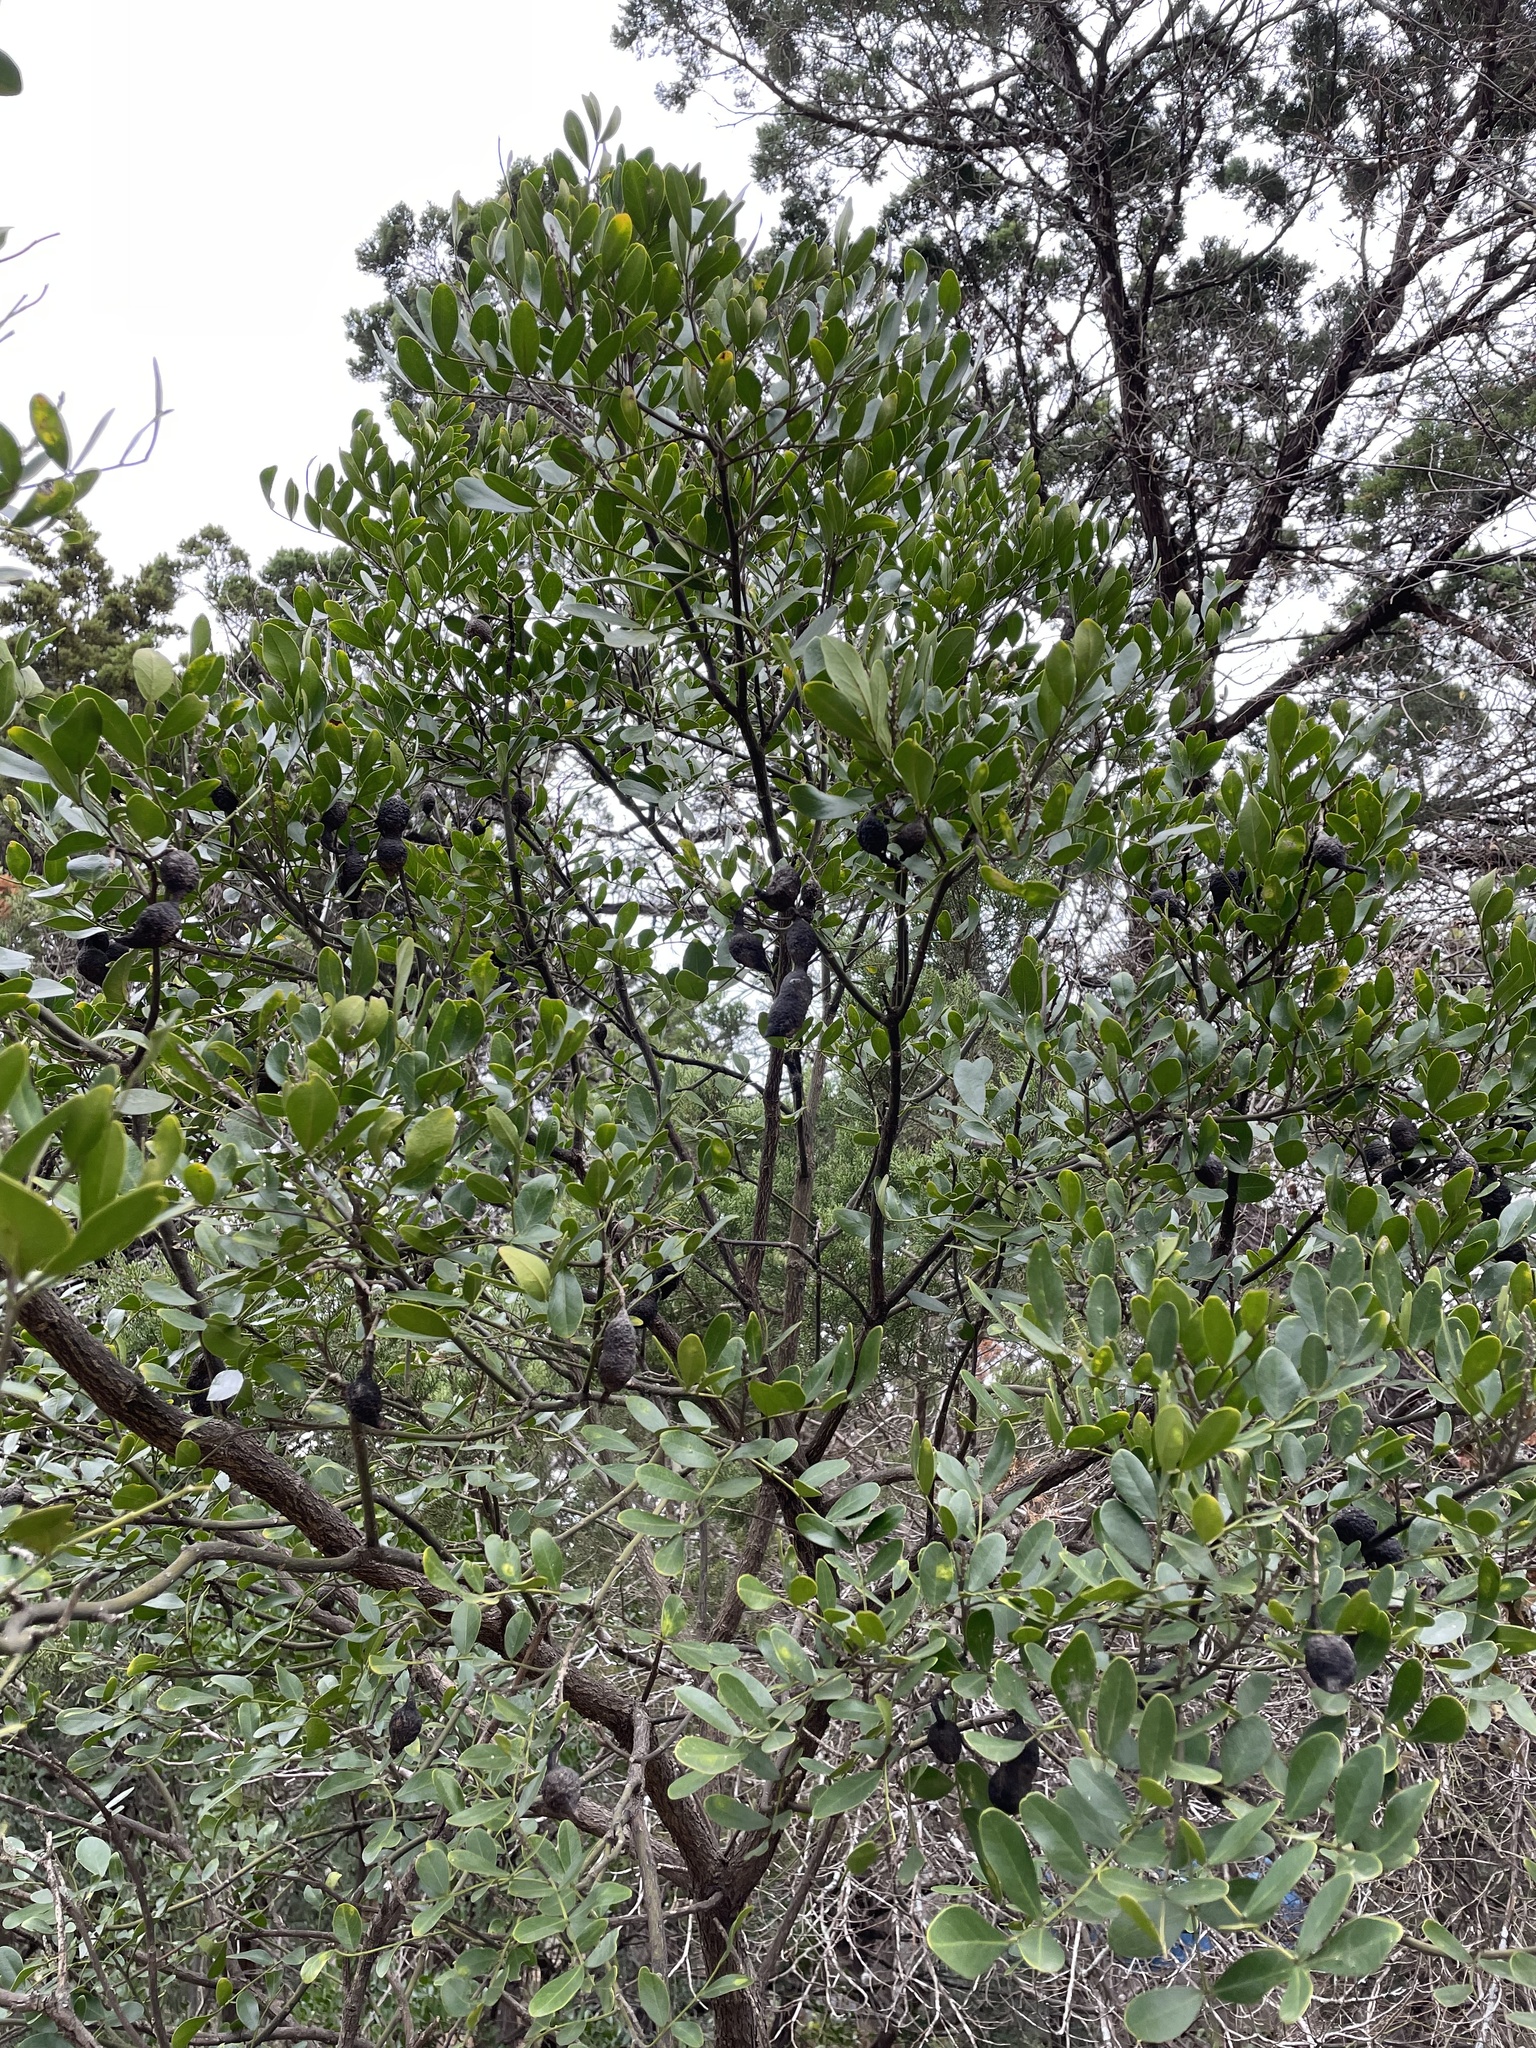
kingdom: Plantae
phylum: Tracheophyta
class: Magnoliopsida
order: Fabales
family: Fabaceae
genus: Dermatophyllum
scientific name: Dermatophyllum secundiflorum
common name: Texas-mountain-laurel
